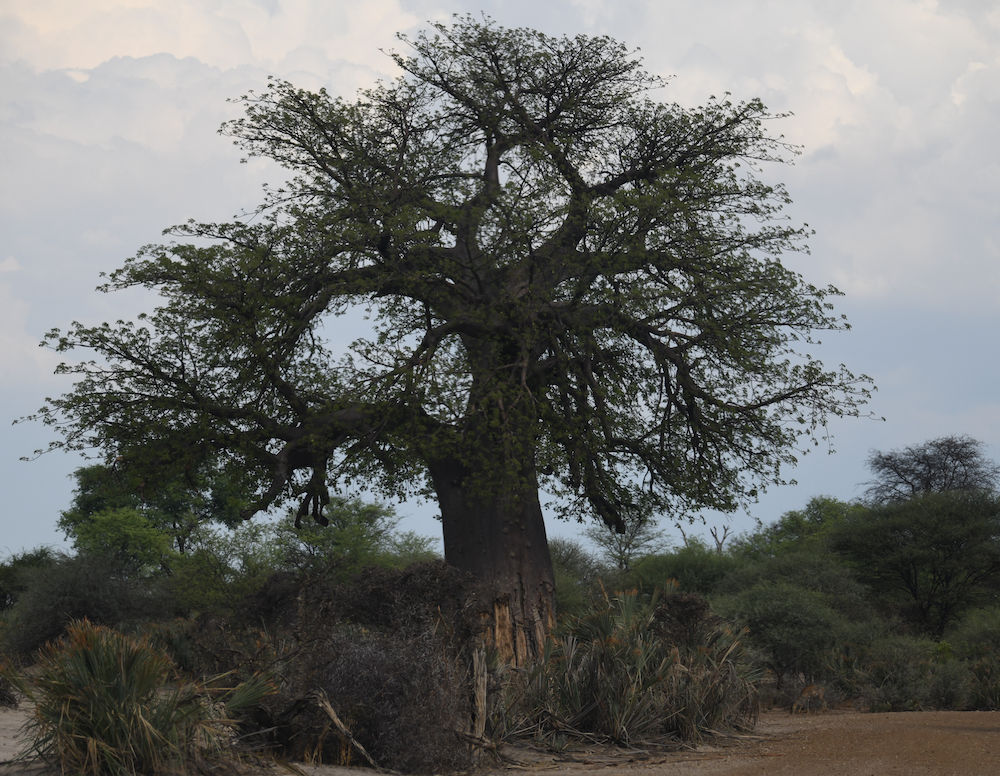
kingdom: Plantae
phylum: Tracheophyta
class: Magnoliopsida
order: Malvales
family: Malvaceae
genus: Adansonia
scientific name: Adansonia digitata
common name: Dead-rat-tree
